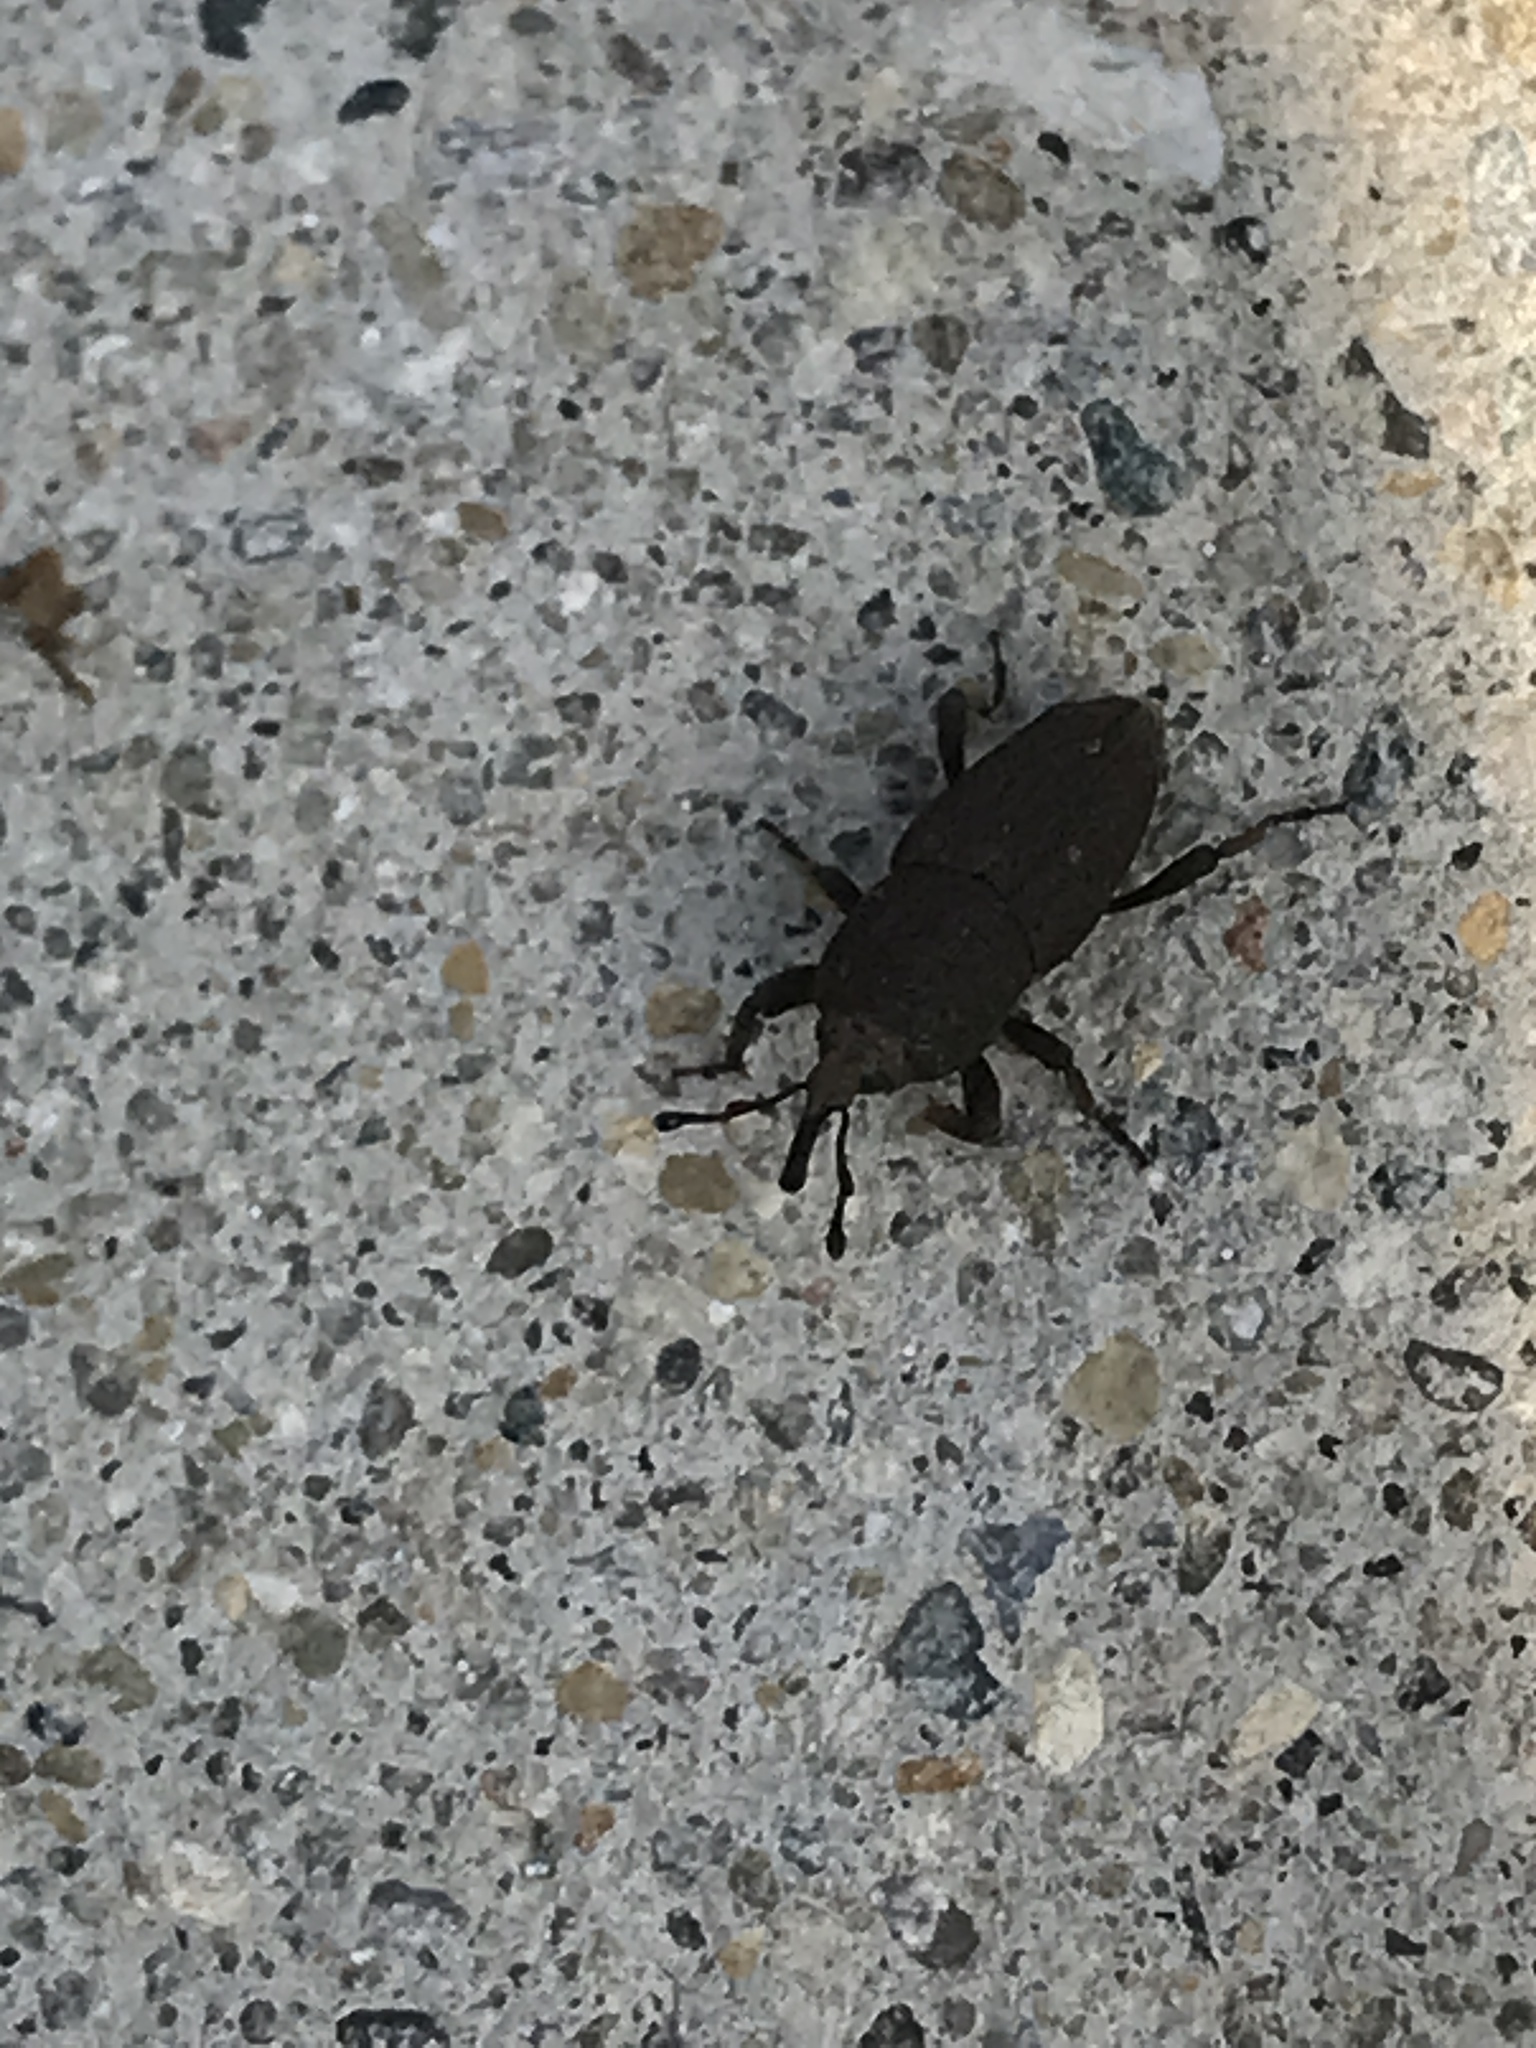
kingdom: Animalia
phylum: Arthropoda
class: Insecta
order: Coleoptera
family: Dryophthoridae
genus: Sphenophorus
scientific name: Sphenophorus minimus
